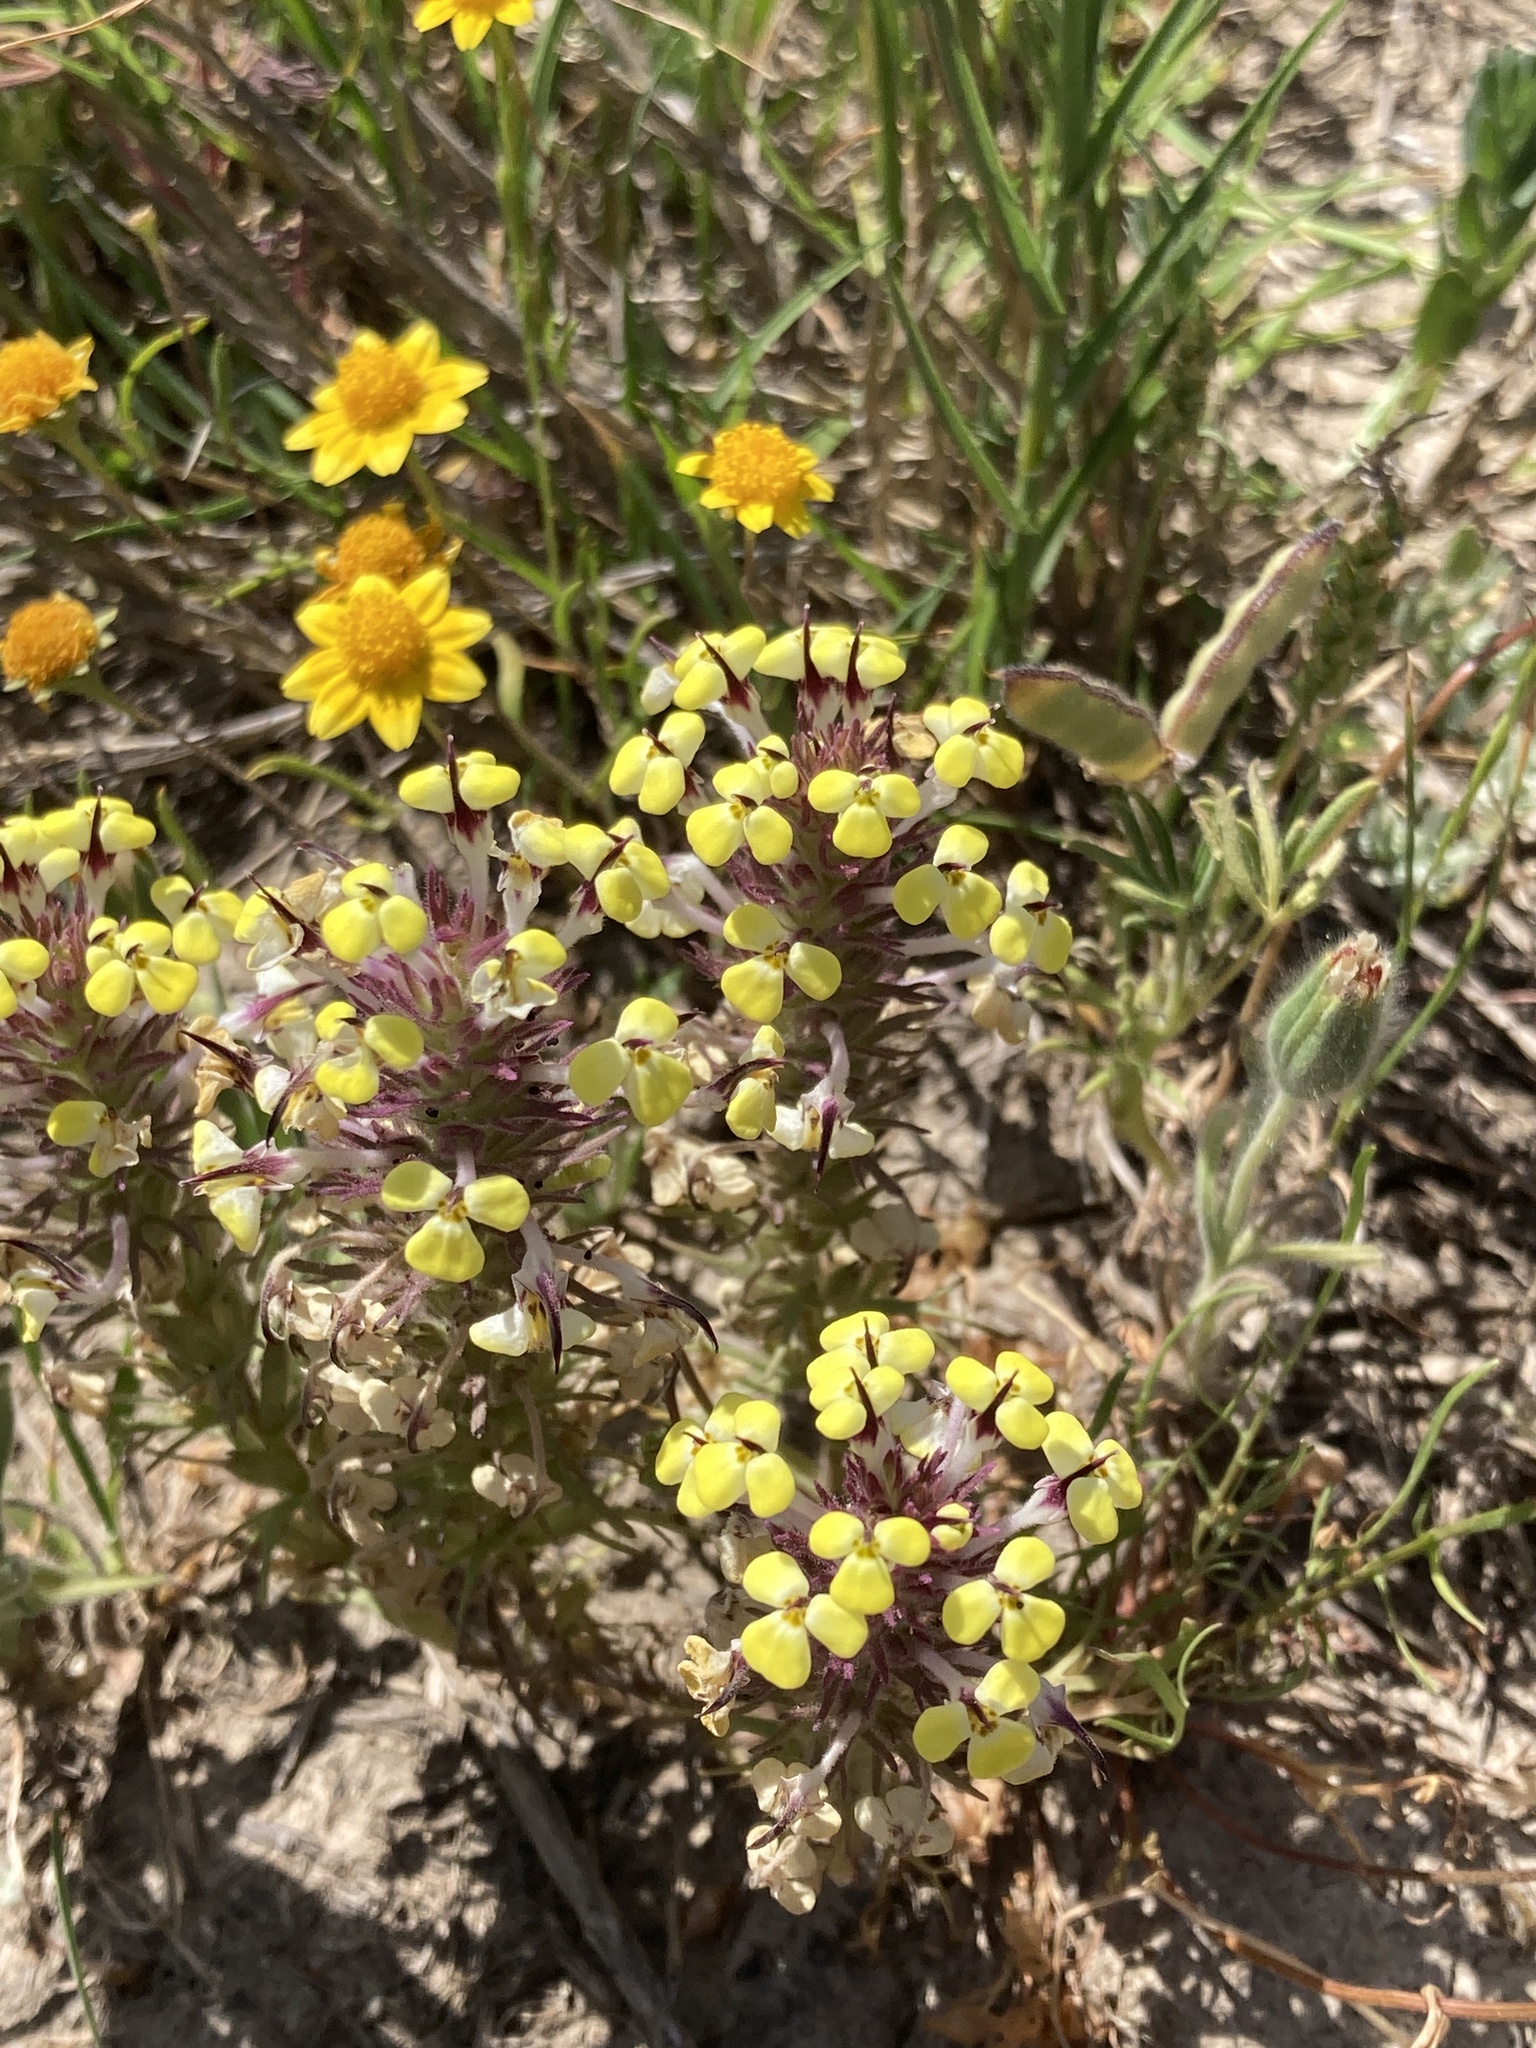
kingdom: Plantae
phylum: Tracheophyta
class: Magnoliopsida
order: Lamiales
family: Orobanchaceae
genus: Triphysaria
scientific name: Triphysaria eriantha
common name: Johnny-tuck
